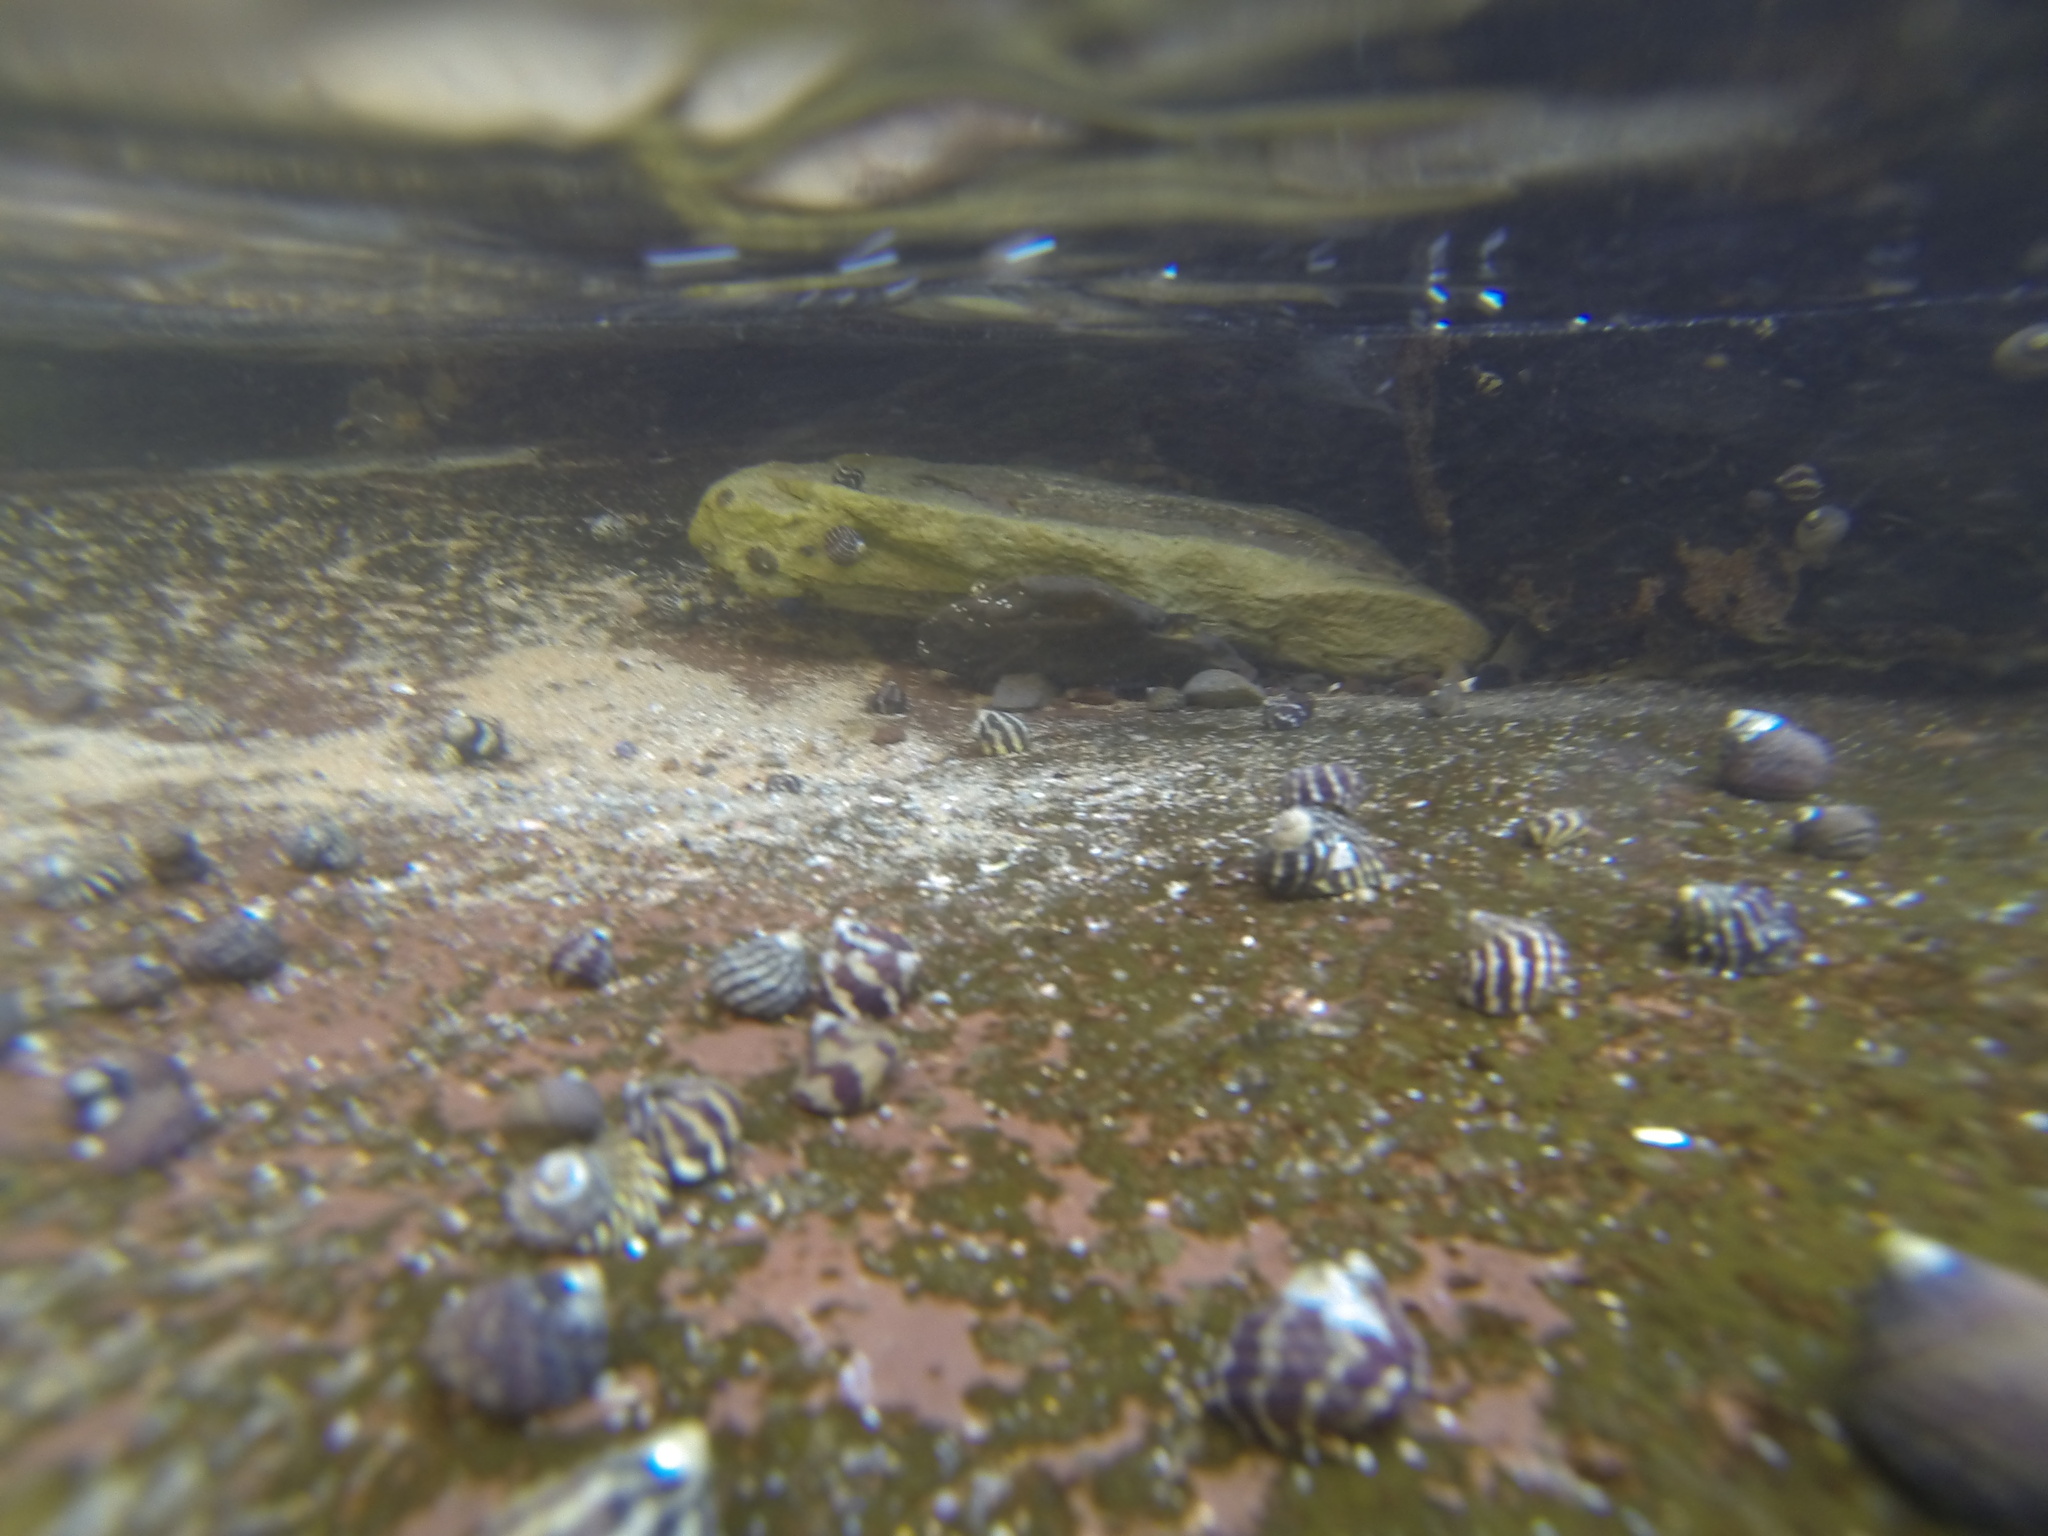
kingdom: Animalia
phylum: Mollusca
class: Gastropoda
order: Trochida
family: Trochidae
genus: Austrocochlea
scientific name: Austrocochlea porcata
